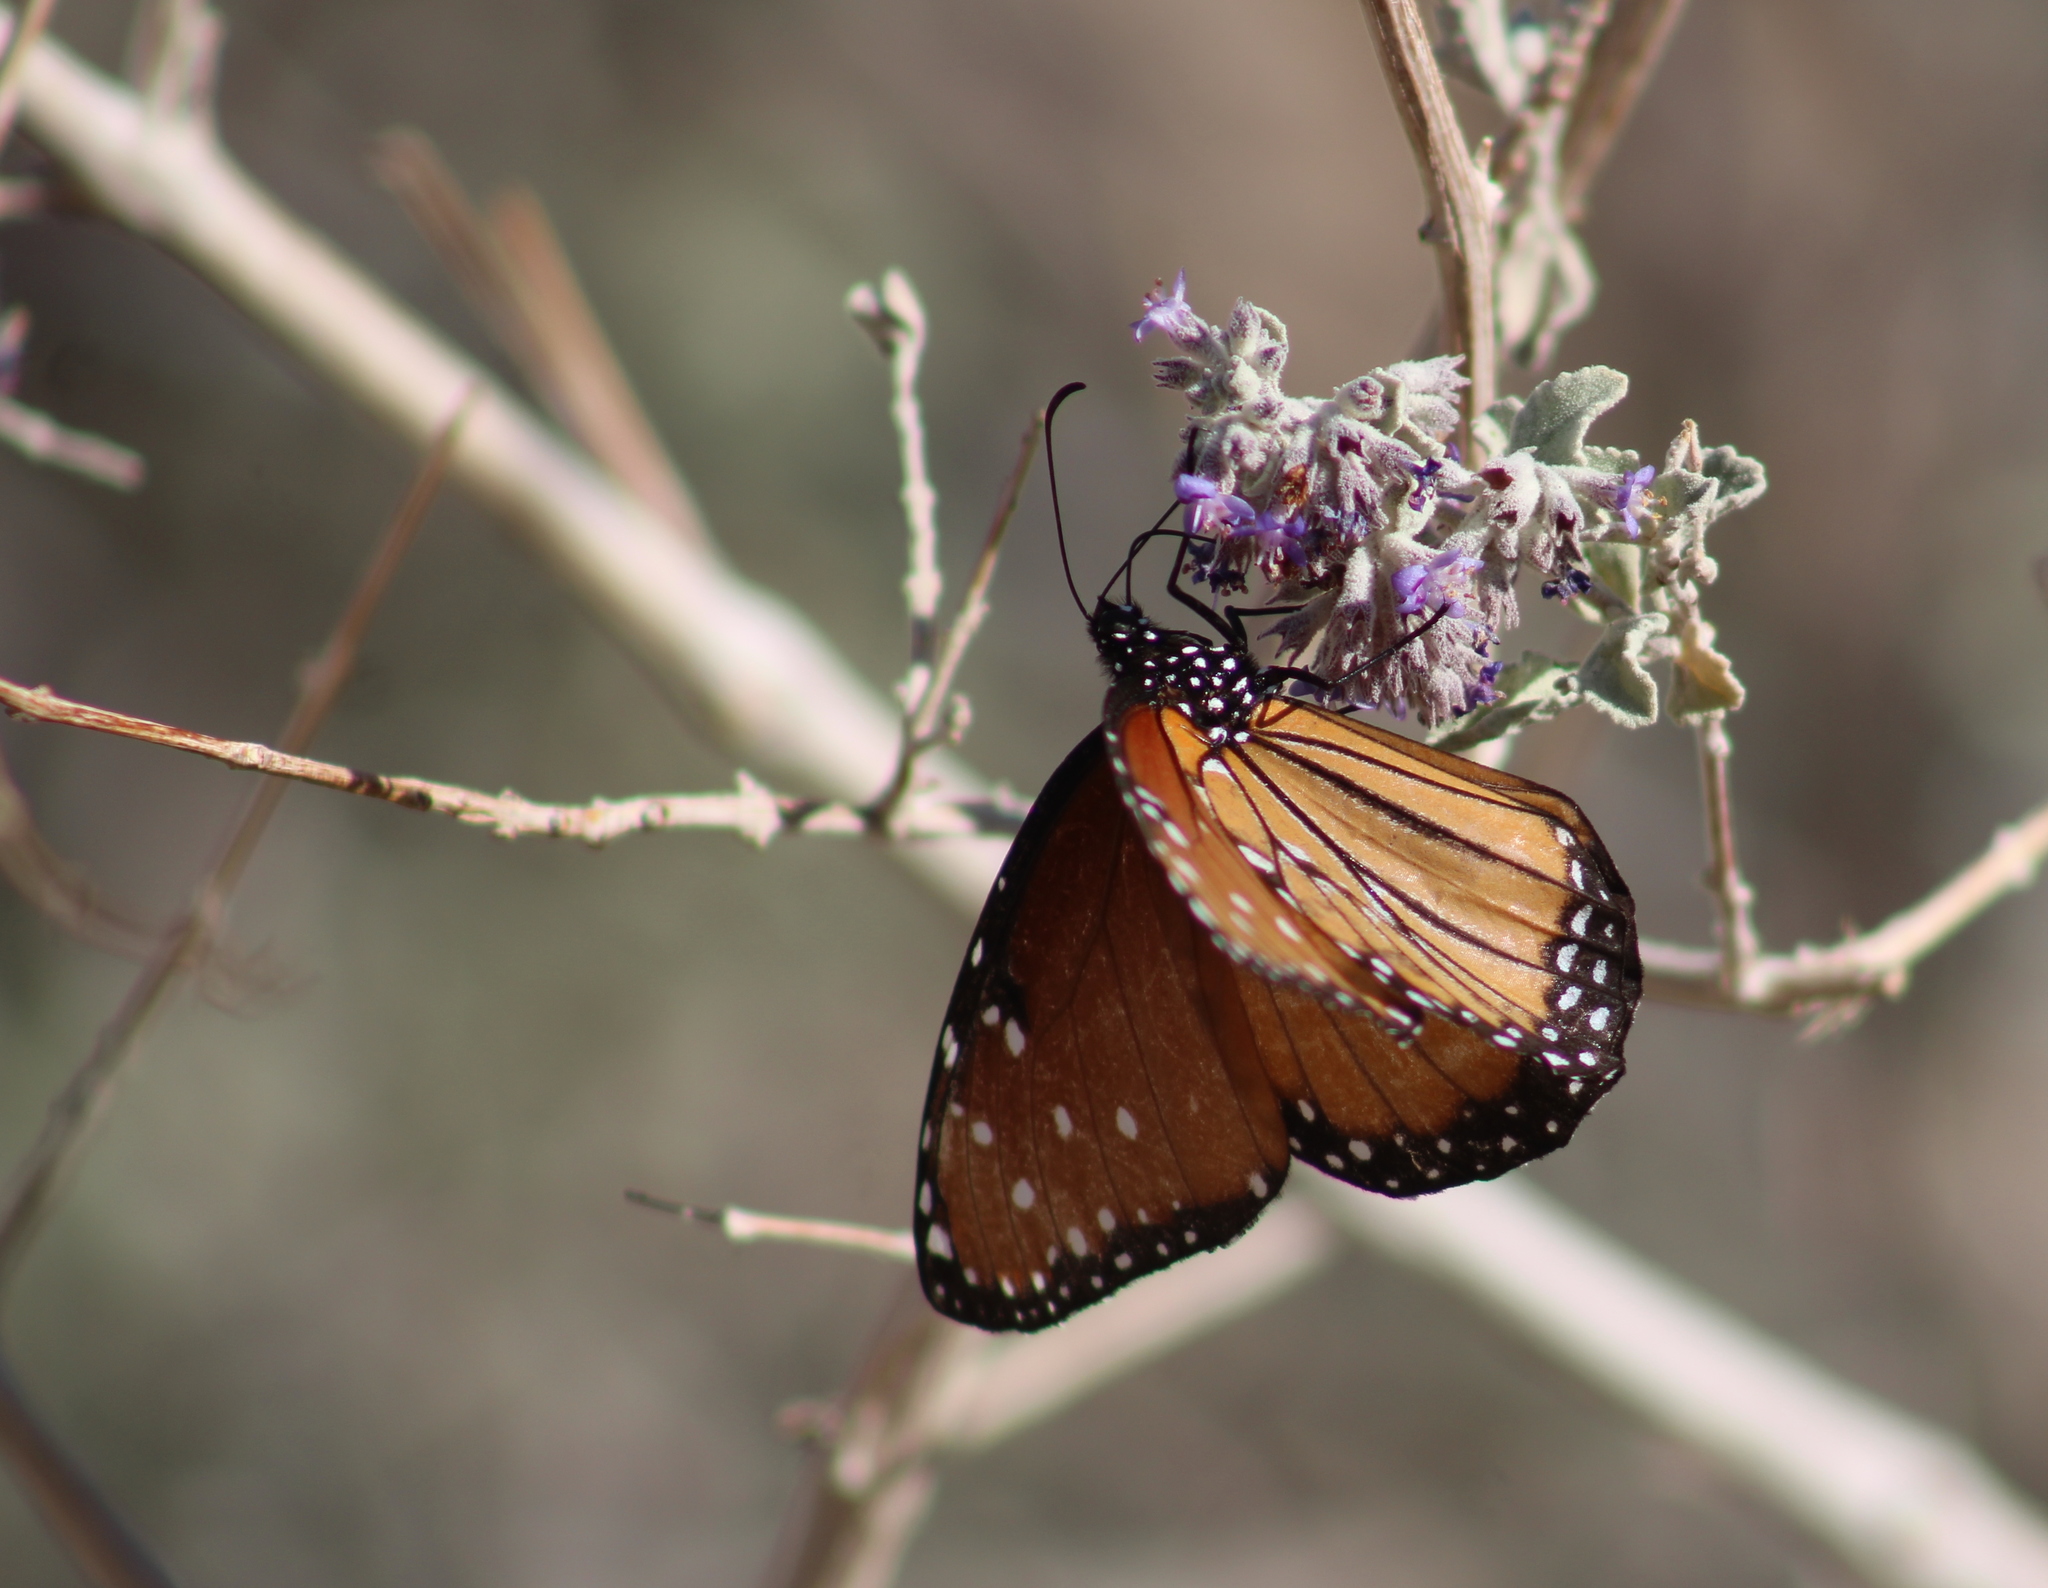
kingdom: Animalia
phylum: Arthropoda
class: Insecta
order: Lepidoptera
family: Nymphalidae
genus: Danaus
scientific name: Danaus gilippus
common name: Queen
